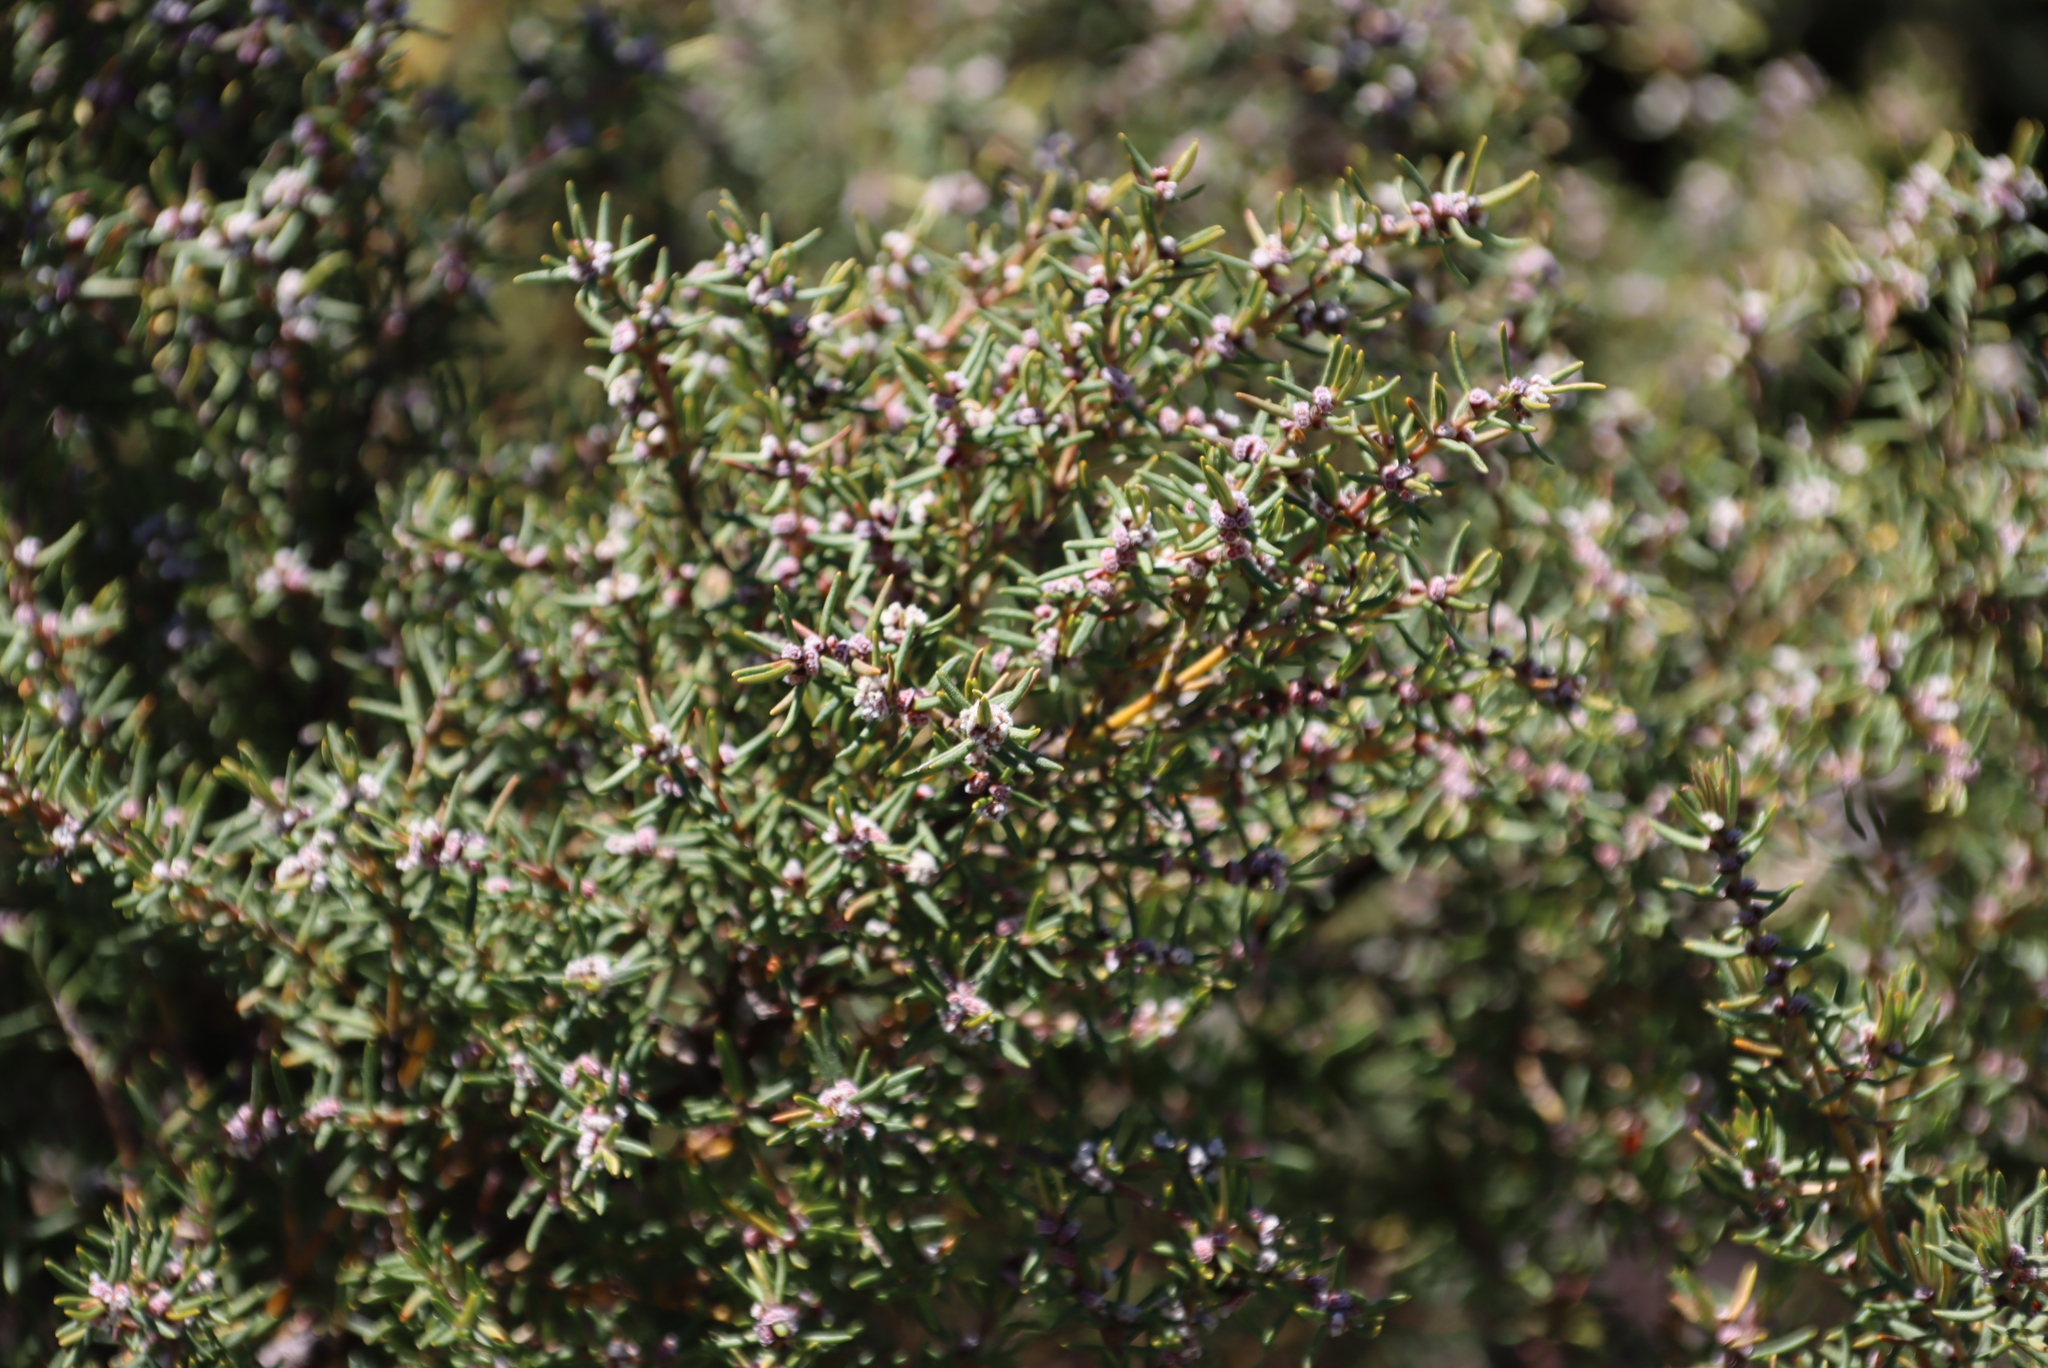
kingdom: Plantae
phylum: Tracheophyta
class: Magnoliopsida
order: Cornales
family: Grubbiaceae
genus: Grubbia
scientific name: Grubbia rosmarinifolia
